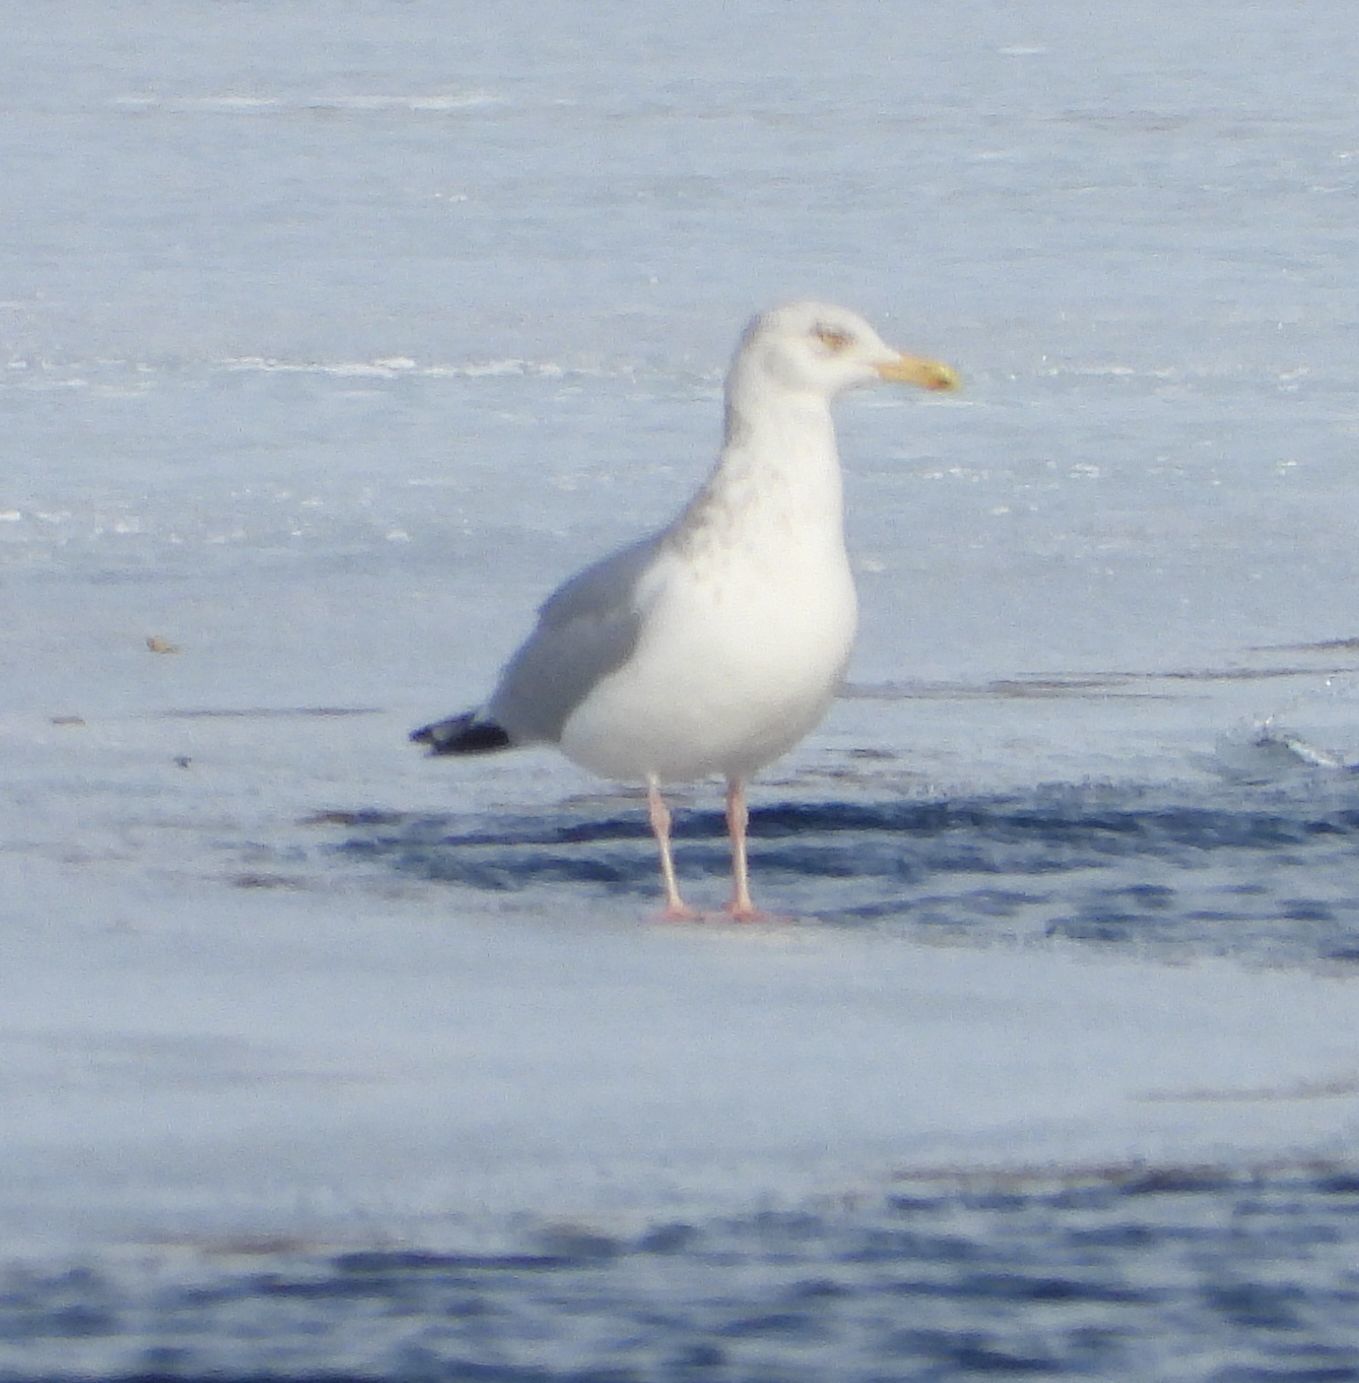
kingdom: Animalia
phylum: Chordata
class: Aves
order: Charadriiformes
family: Laridae
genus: Larus
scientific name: Larus argentatus
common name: Herring gull
